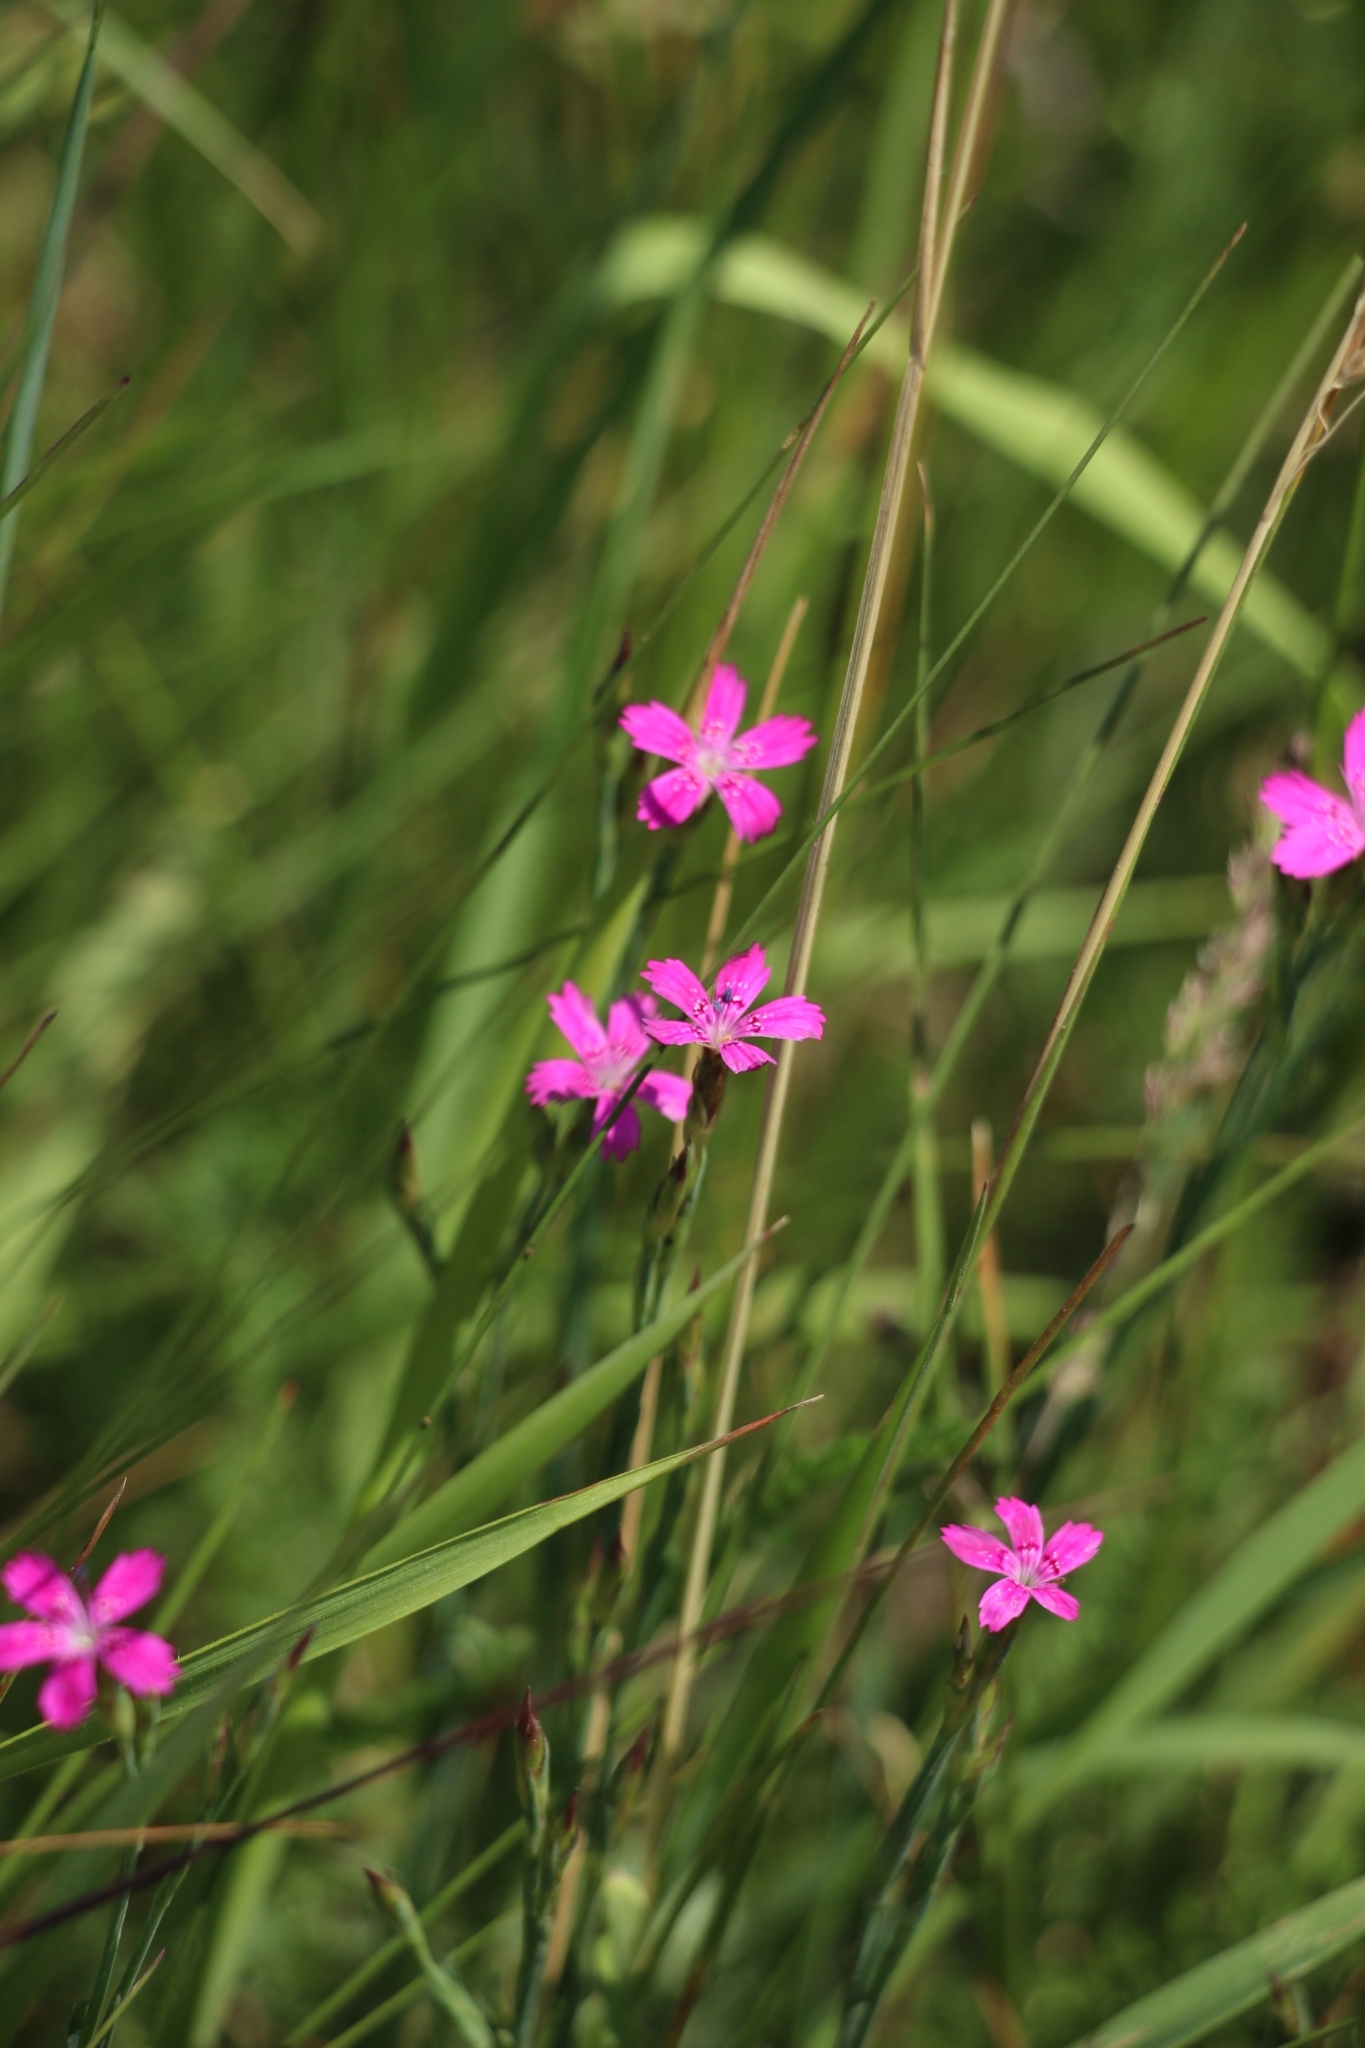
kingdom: Plantae
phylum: Tracheophyta
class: Magnoliopsida
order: Caryophyllales
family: Caryophyllaceae
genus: Dianthus
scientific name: Dianthus deltoides
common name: Maiden pink
